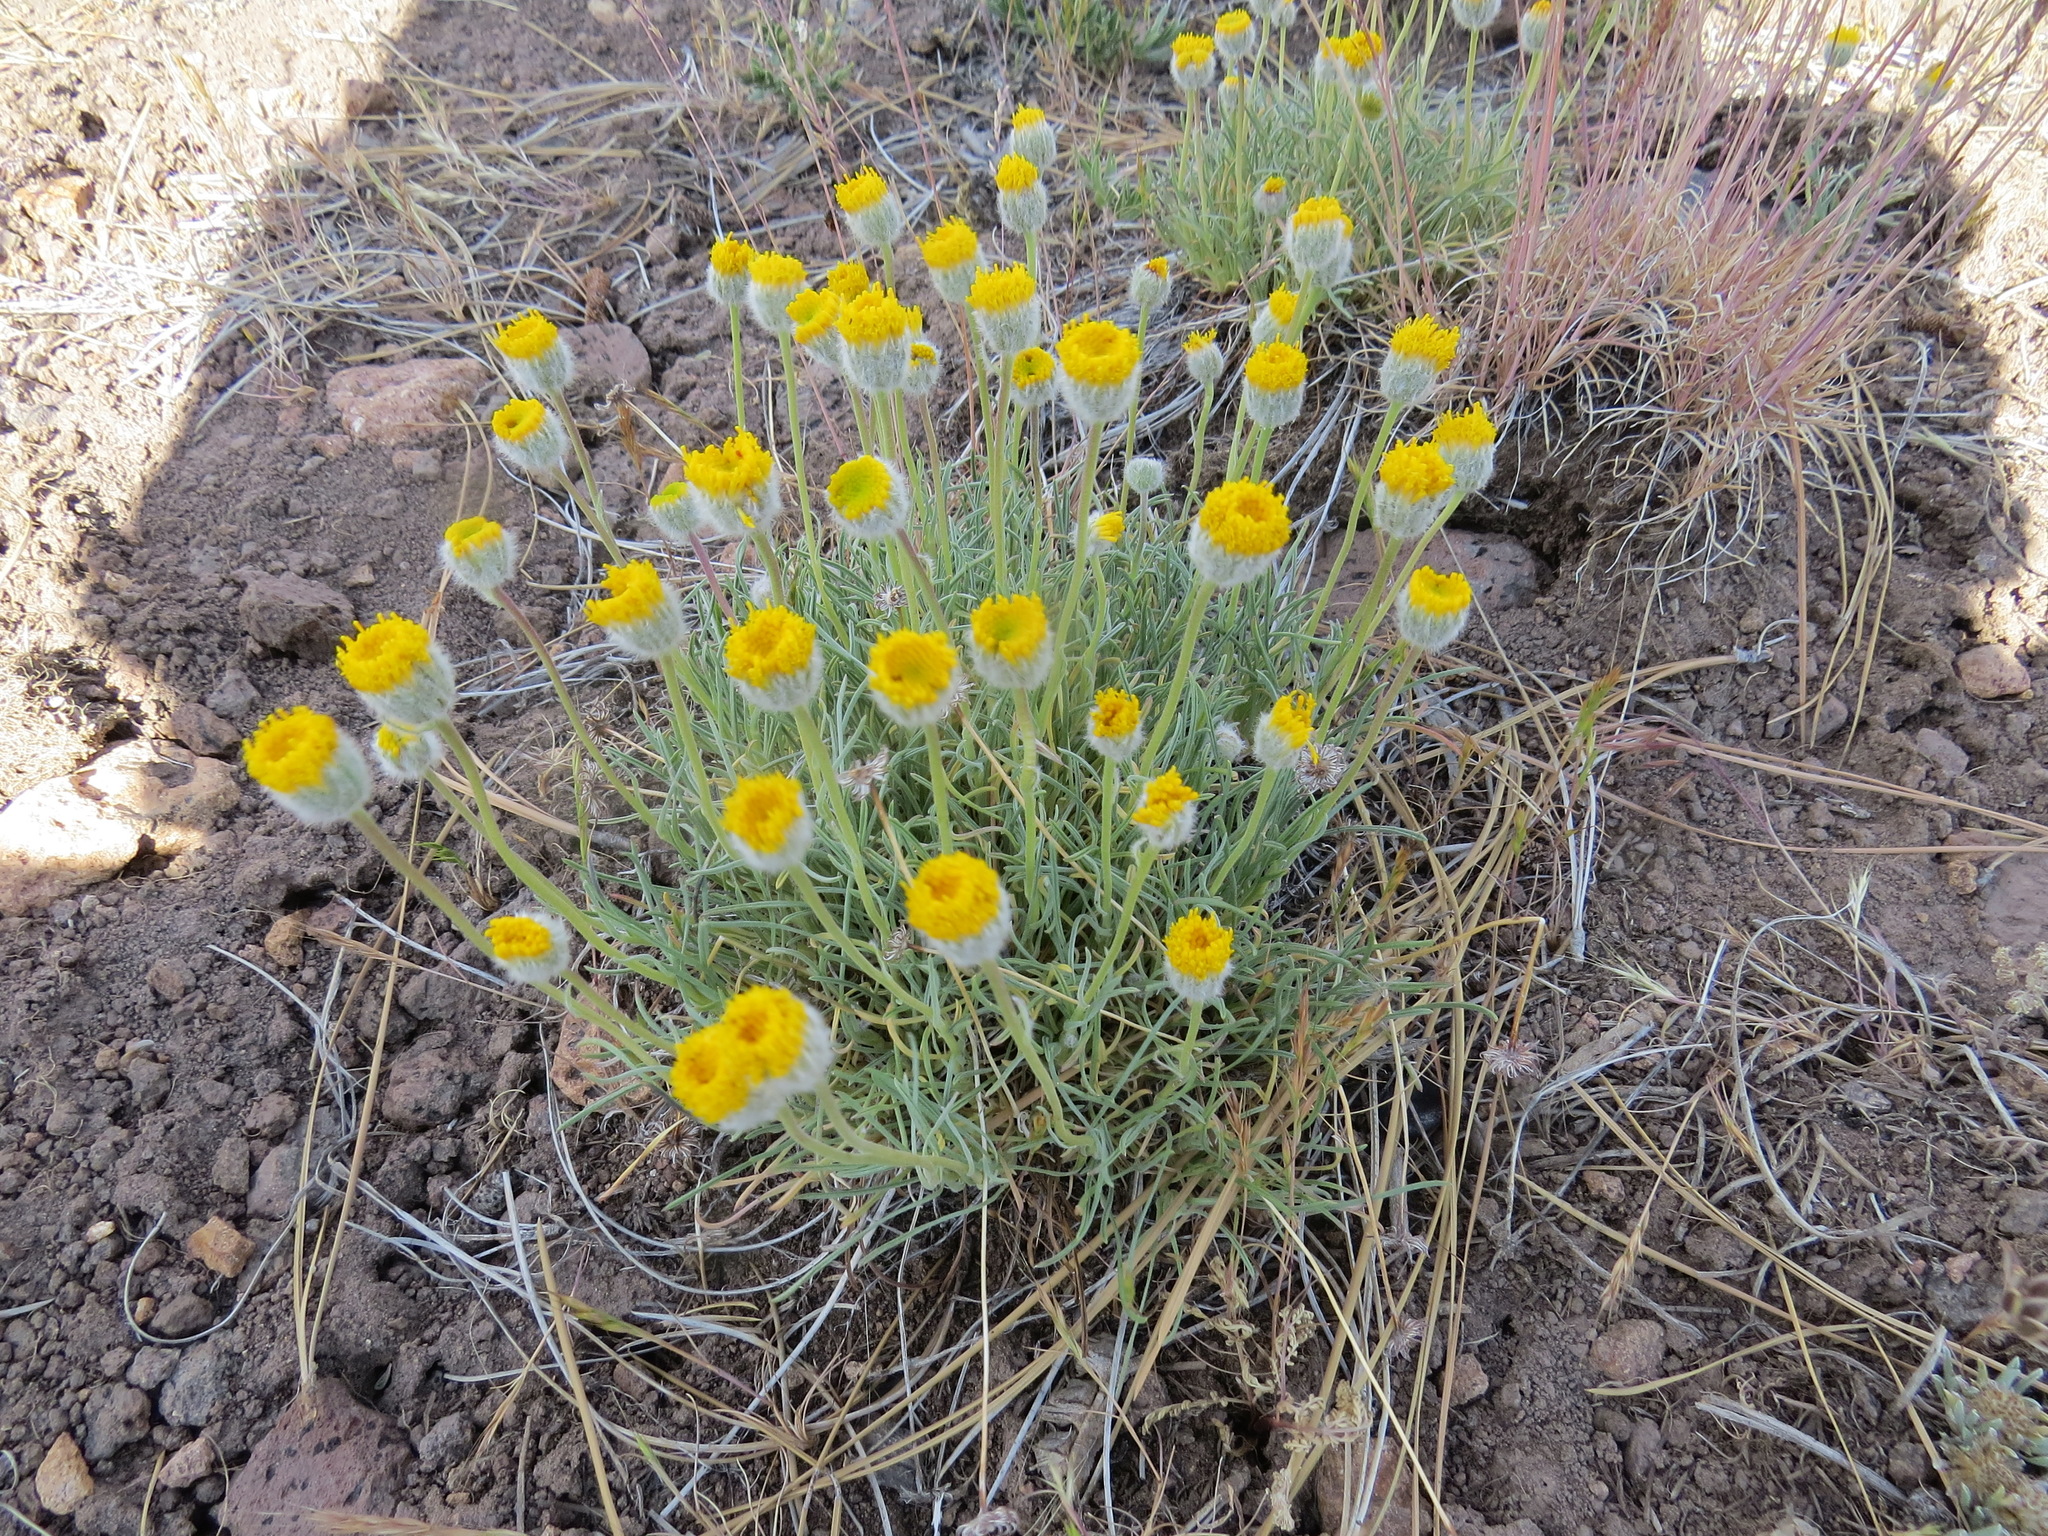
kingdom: Plantae
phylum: Tracheophyta
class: Magnoliopsida
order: Asterales
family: Asteraceae
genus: Erigeron
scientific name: Erigeron bloomeri
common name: Bloomer's fleabane
